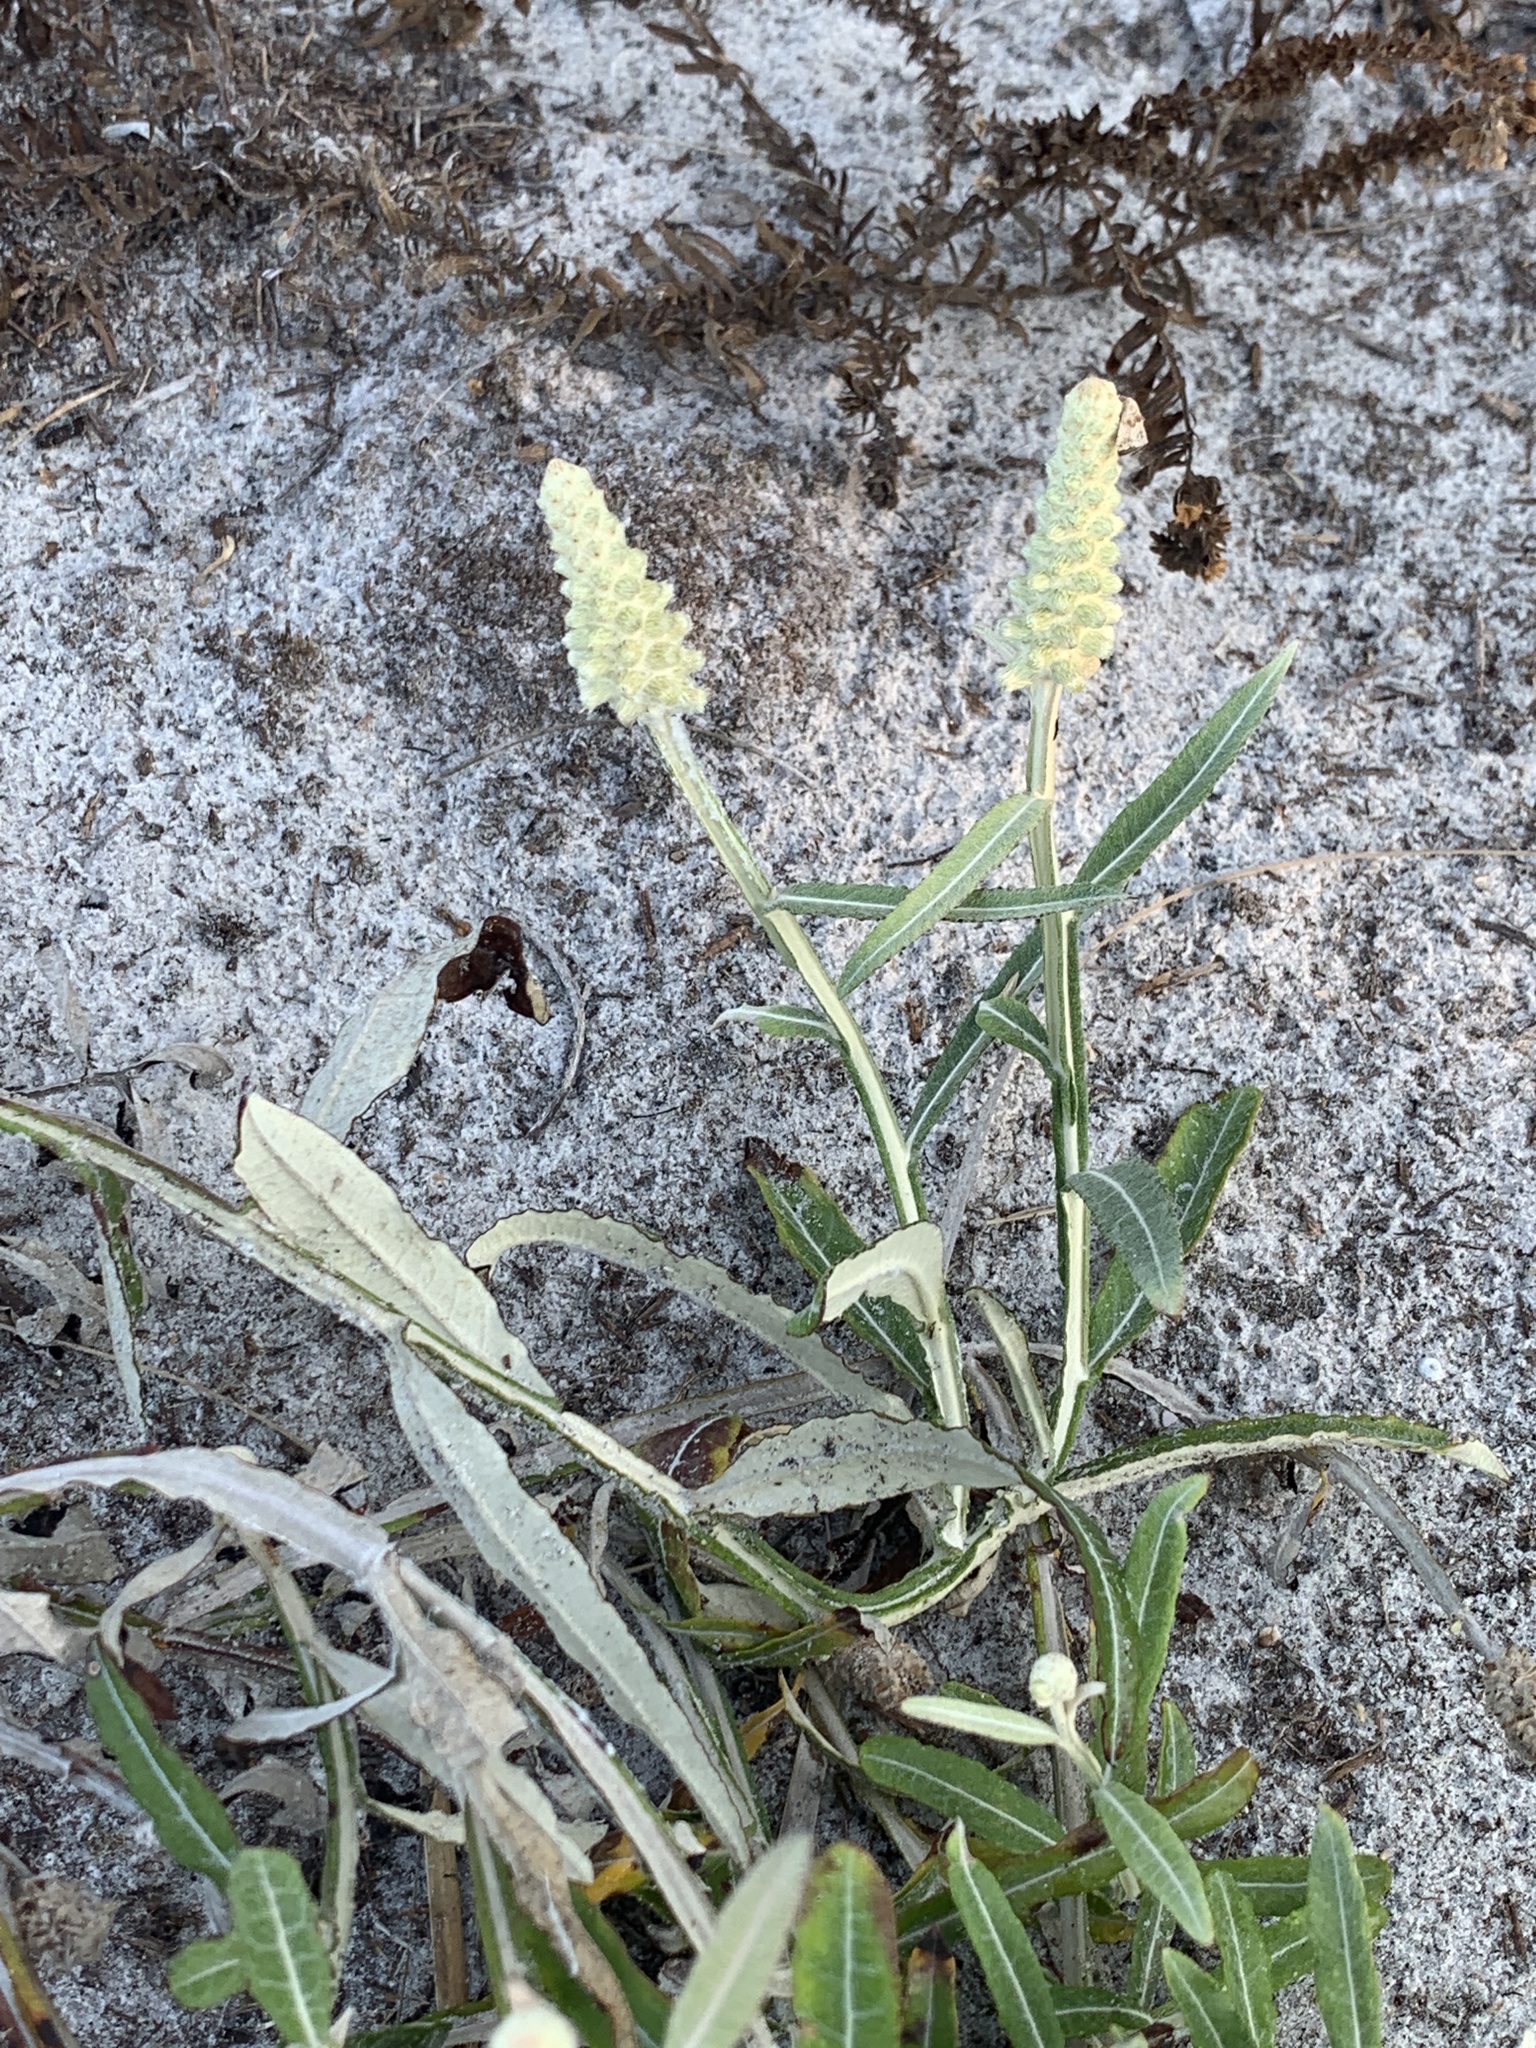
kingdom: Plantae
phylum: Tracheophyta
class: Magnoliopsida
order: Asterales
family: Asteraceae
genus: Pterocaulon
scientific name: Pterocaulon pycnostachyum
